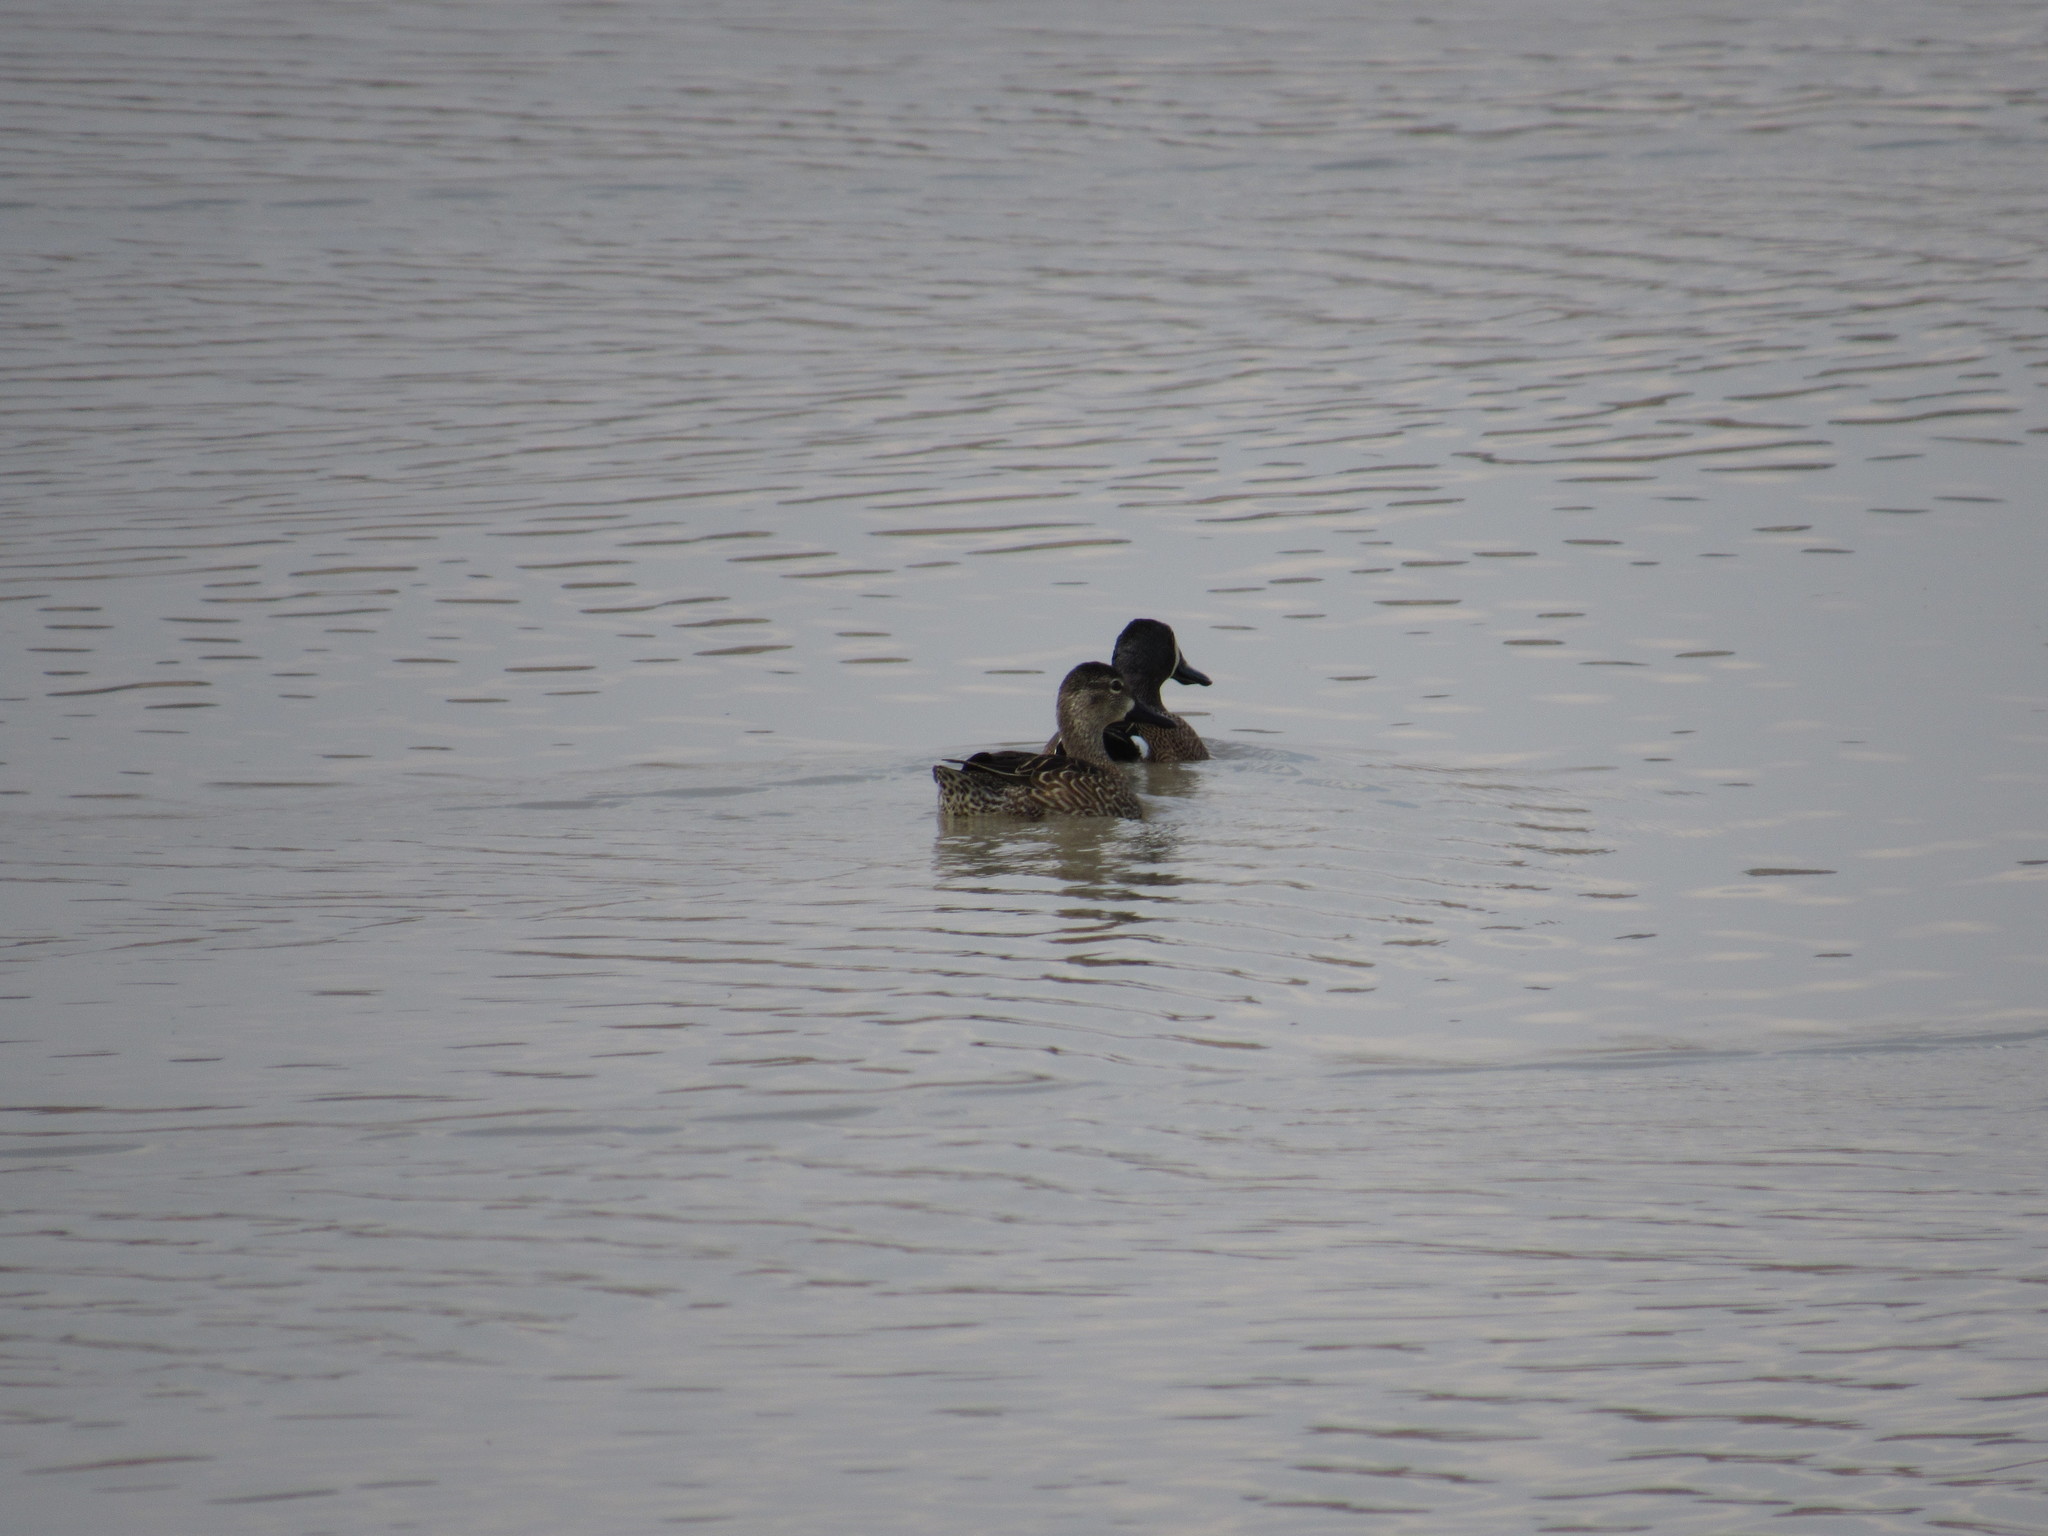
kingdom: Animalia
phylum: Chordata
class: Aves
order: Anseriformes
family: Anatidae
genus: Spatula
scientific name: Spatula discors
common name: Blue-winged teal
